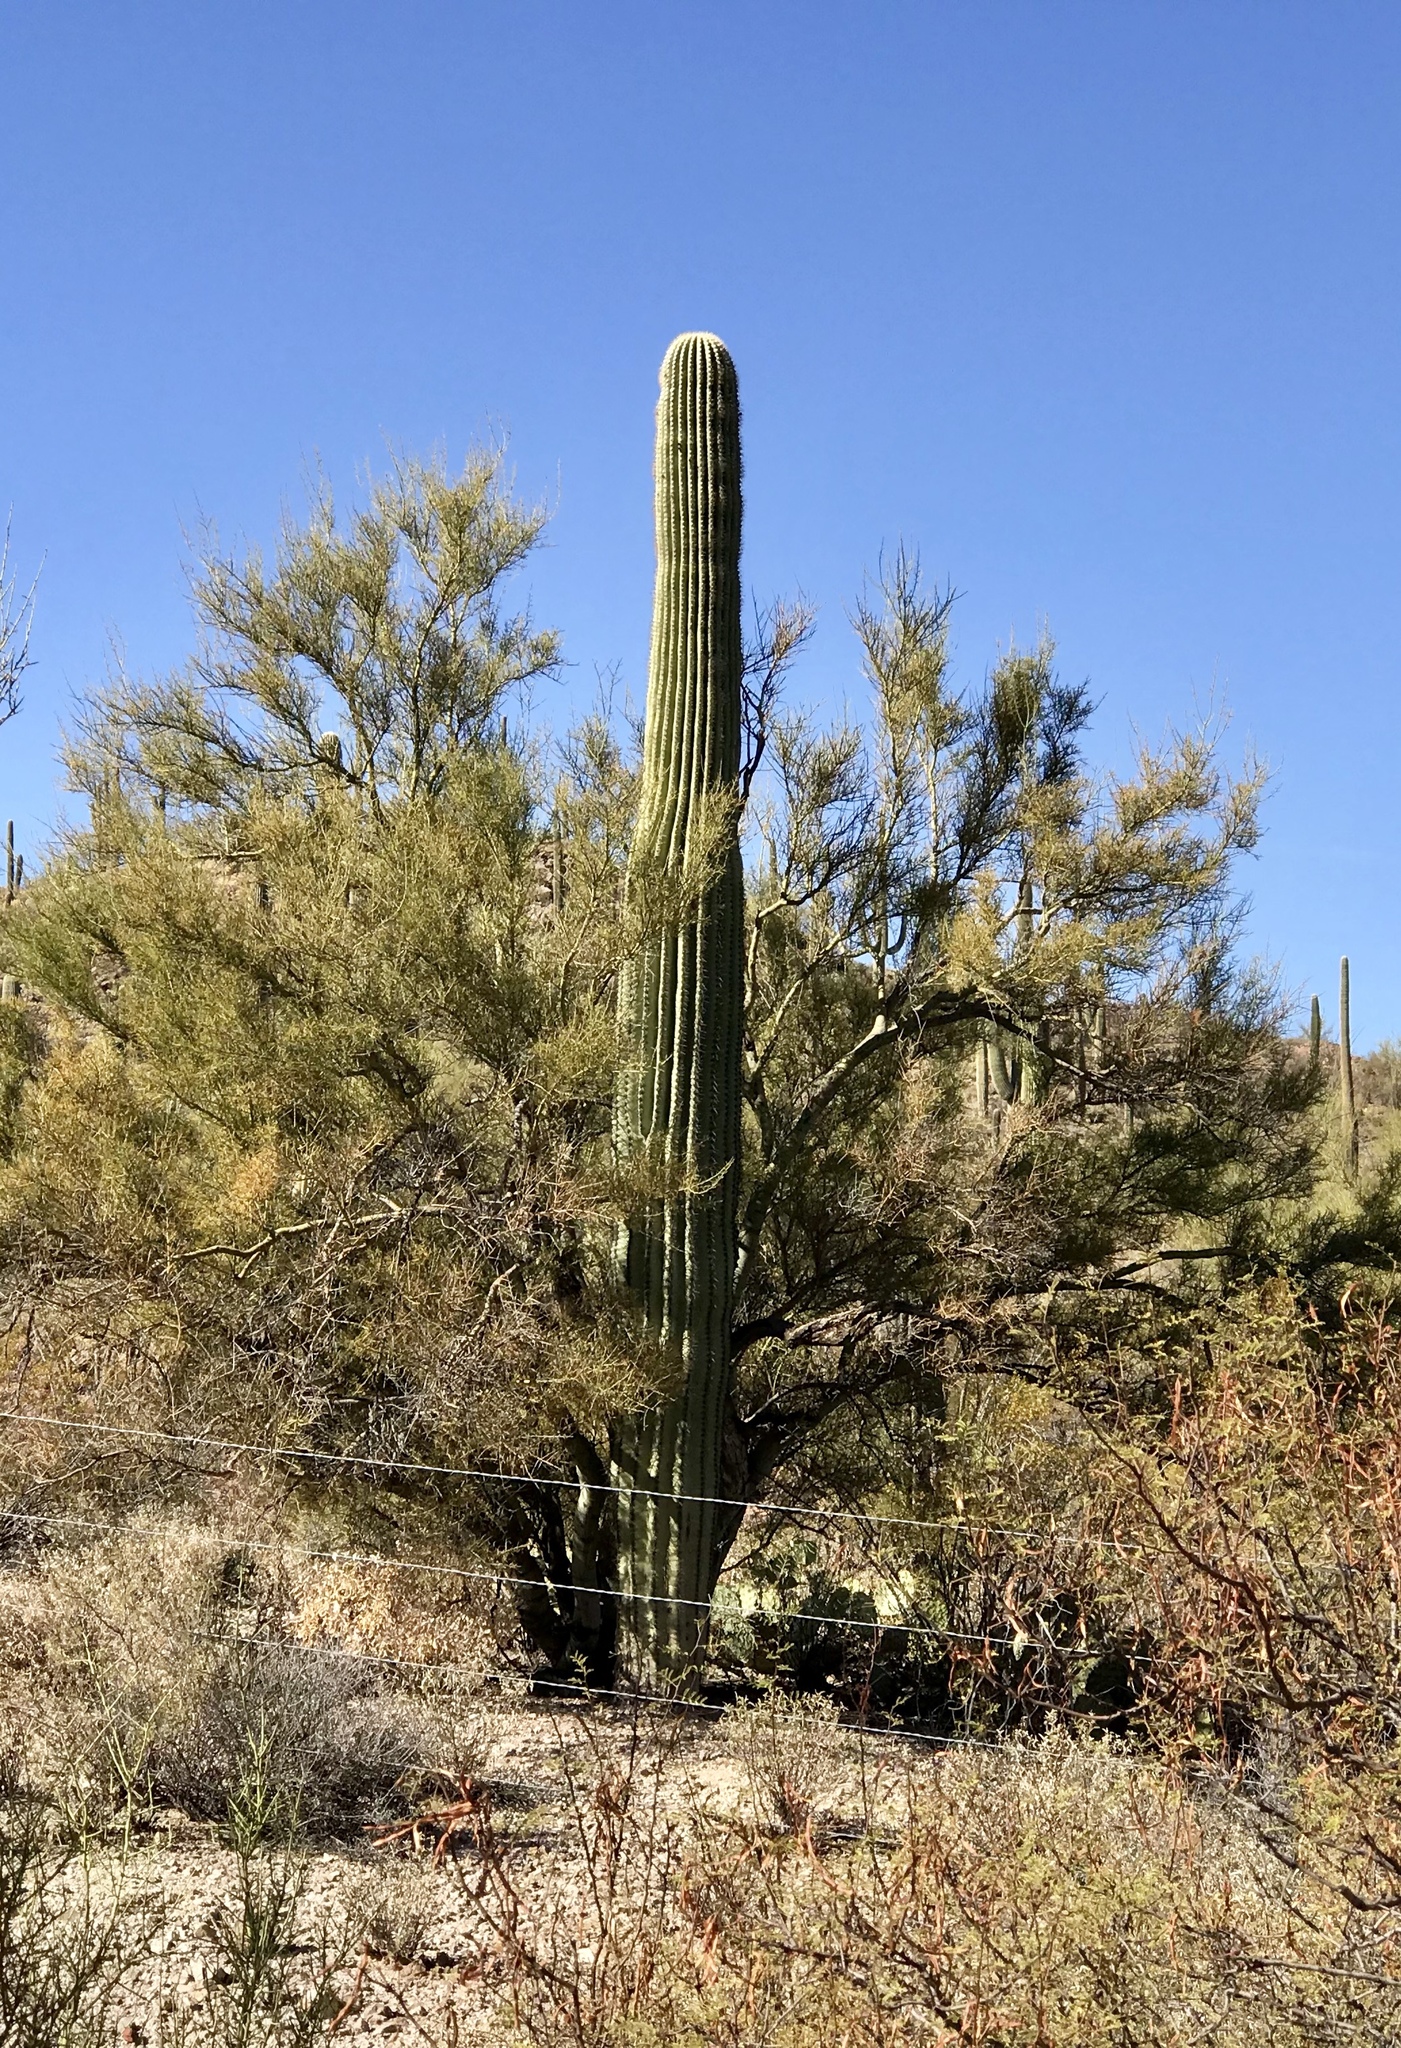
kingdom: Plantae
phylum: Tracheophyta
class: Magnoliopsida
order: Caryophyllales
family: Cactaceae
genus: Carnegiea
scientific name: Carnegiea gigantea
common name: Saguaro
